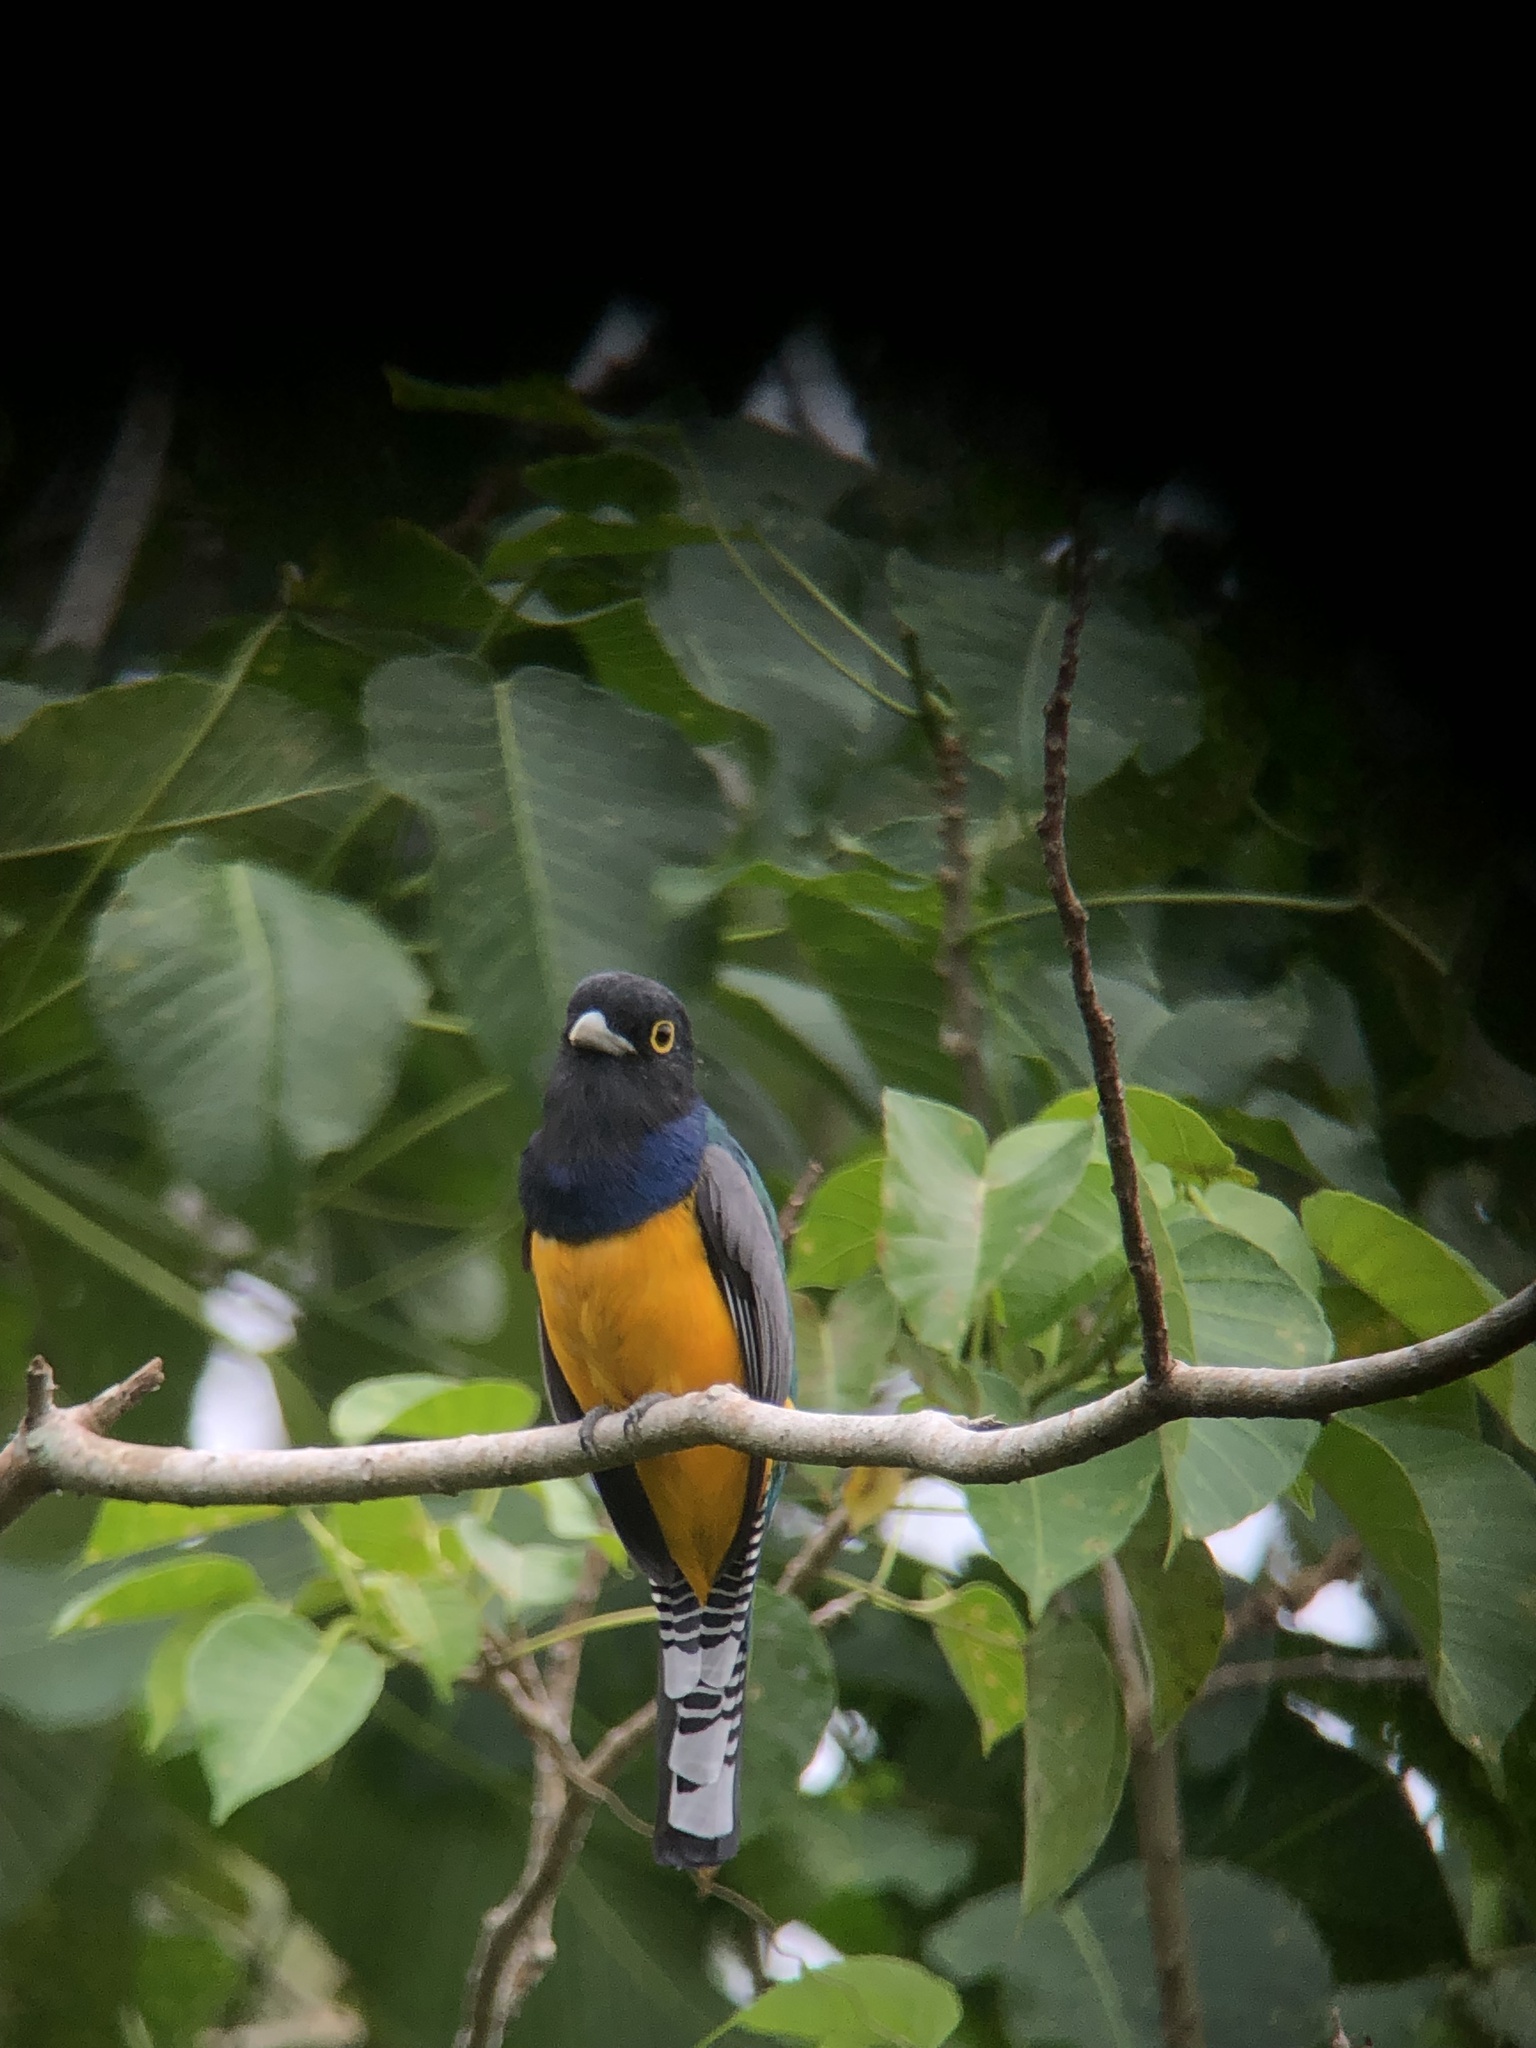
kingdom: Animalia
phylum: Chordata
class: Aves
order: Trogoniformes
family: Trogonidae
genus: Trogon
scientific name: Trogon caligatus
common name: Gartered trogon
